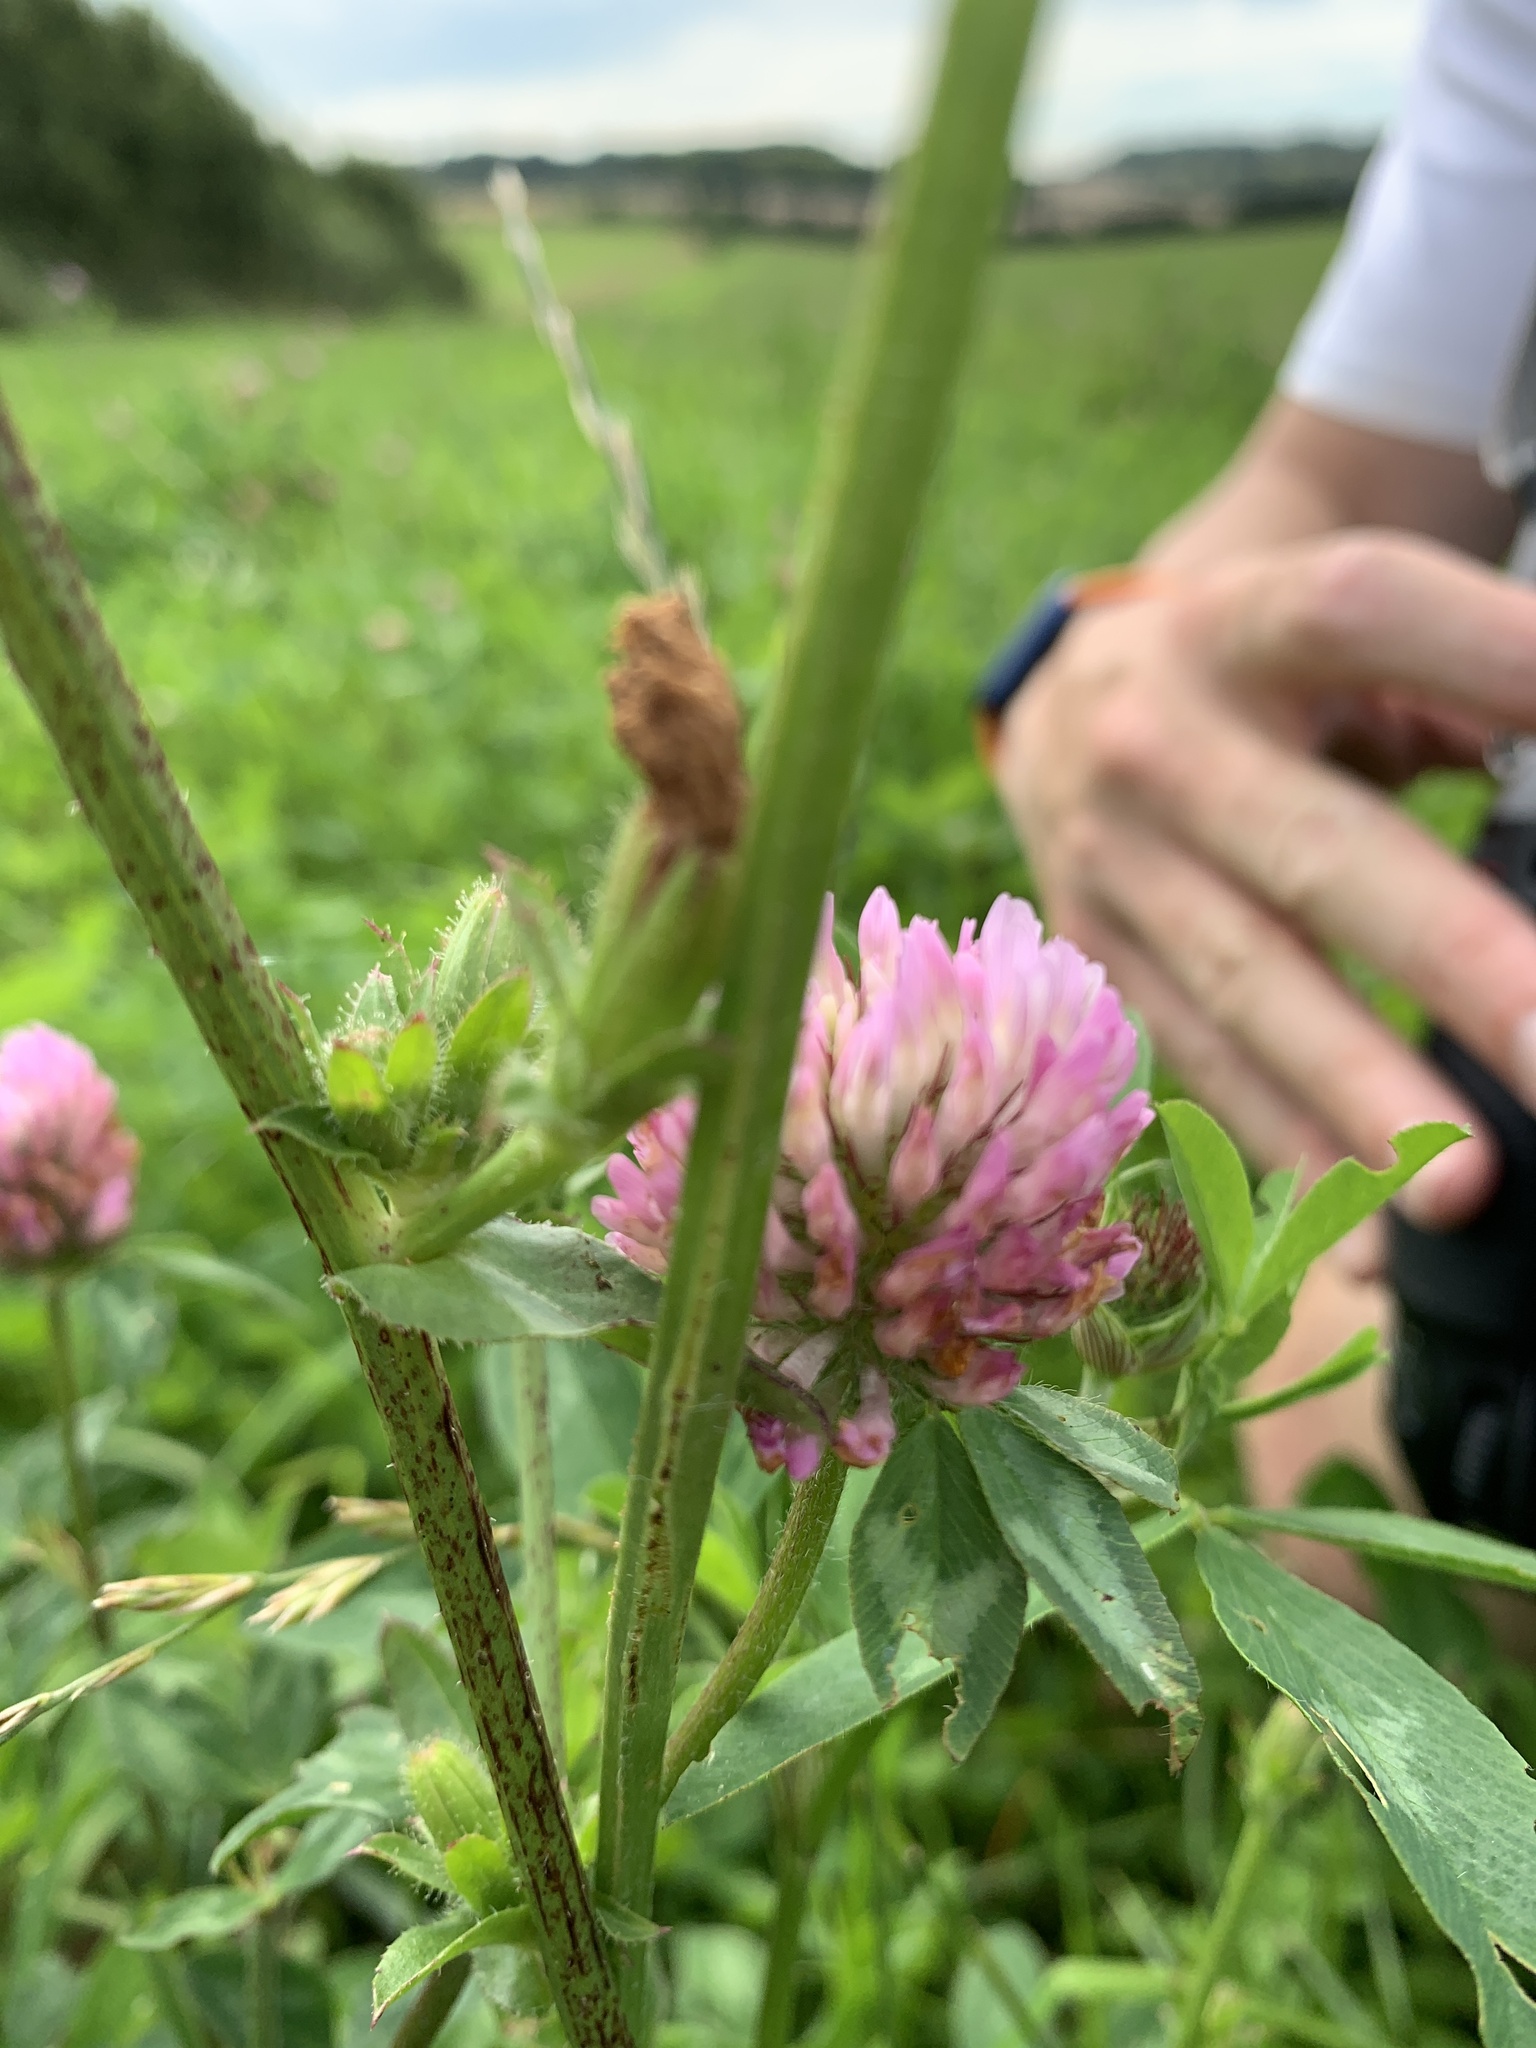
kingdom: Plantae
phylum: Tracheophyta
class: Magnoliopsida
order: Fabales
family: Fabaceae
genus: Trifolium
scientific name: Trifolium pratense
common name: Red clover
